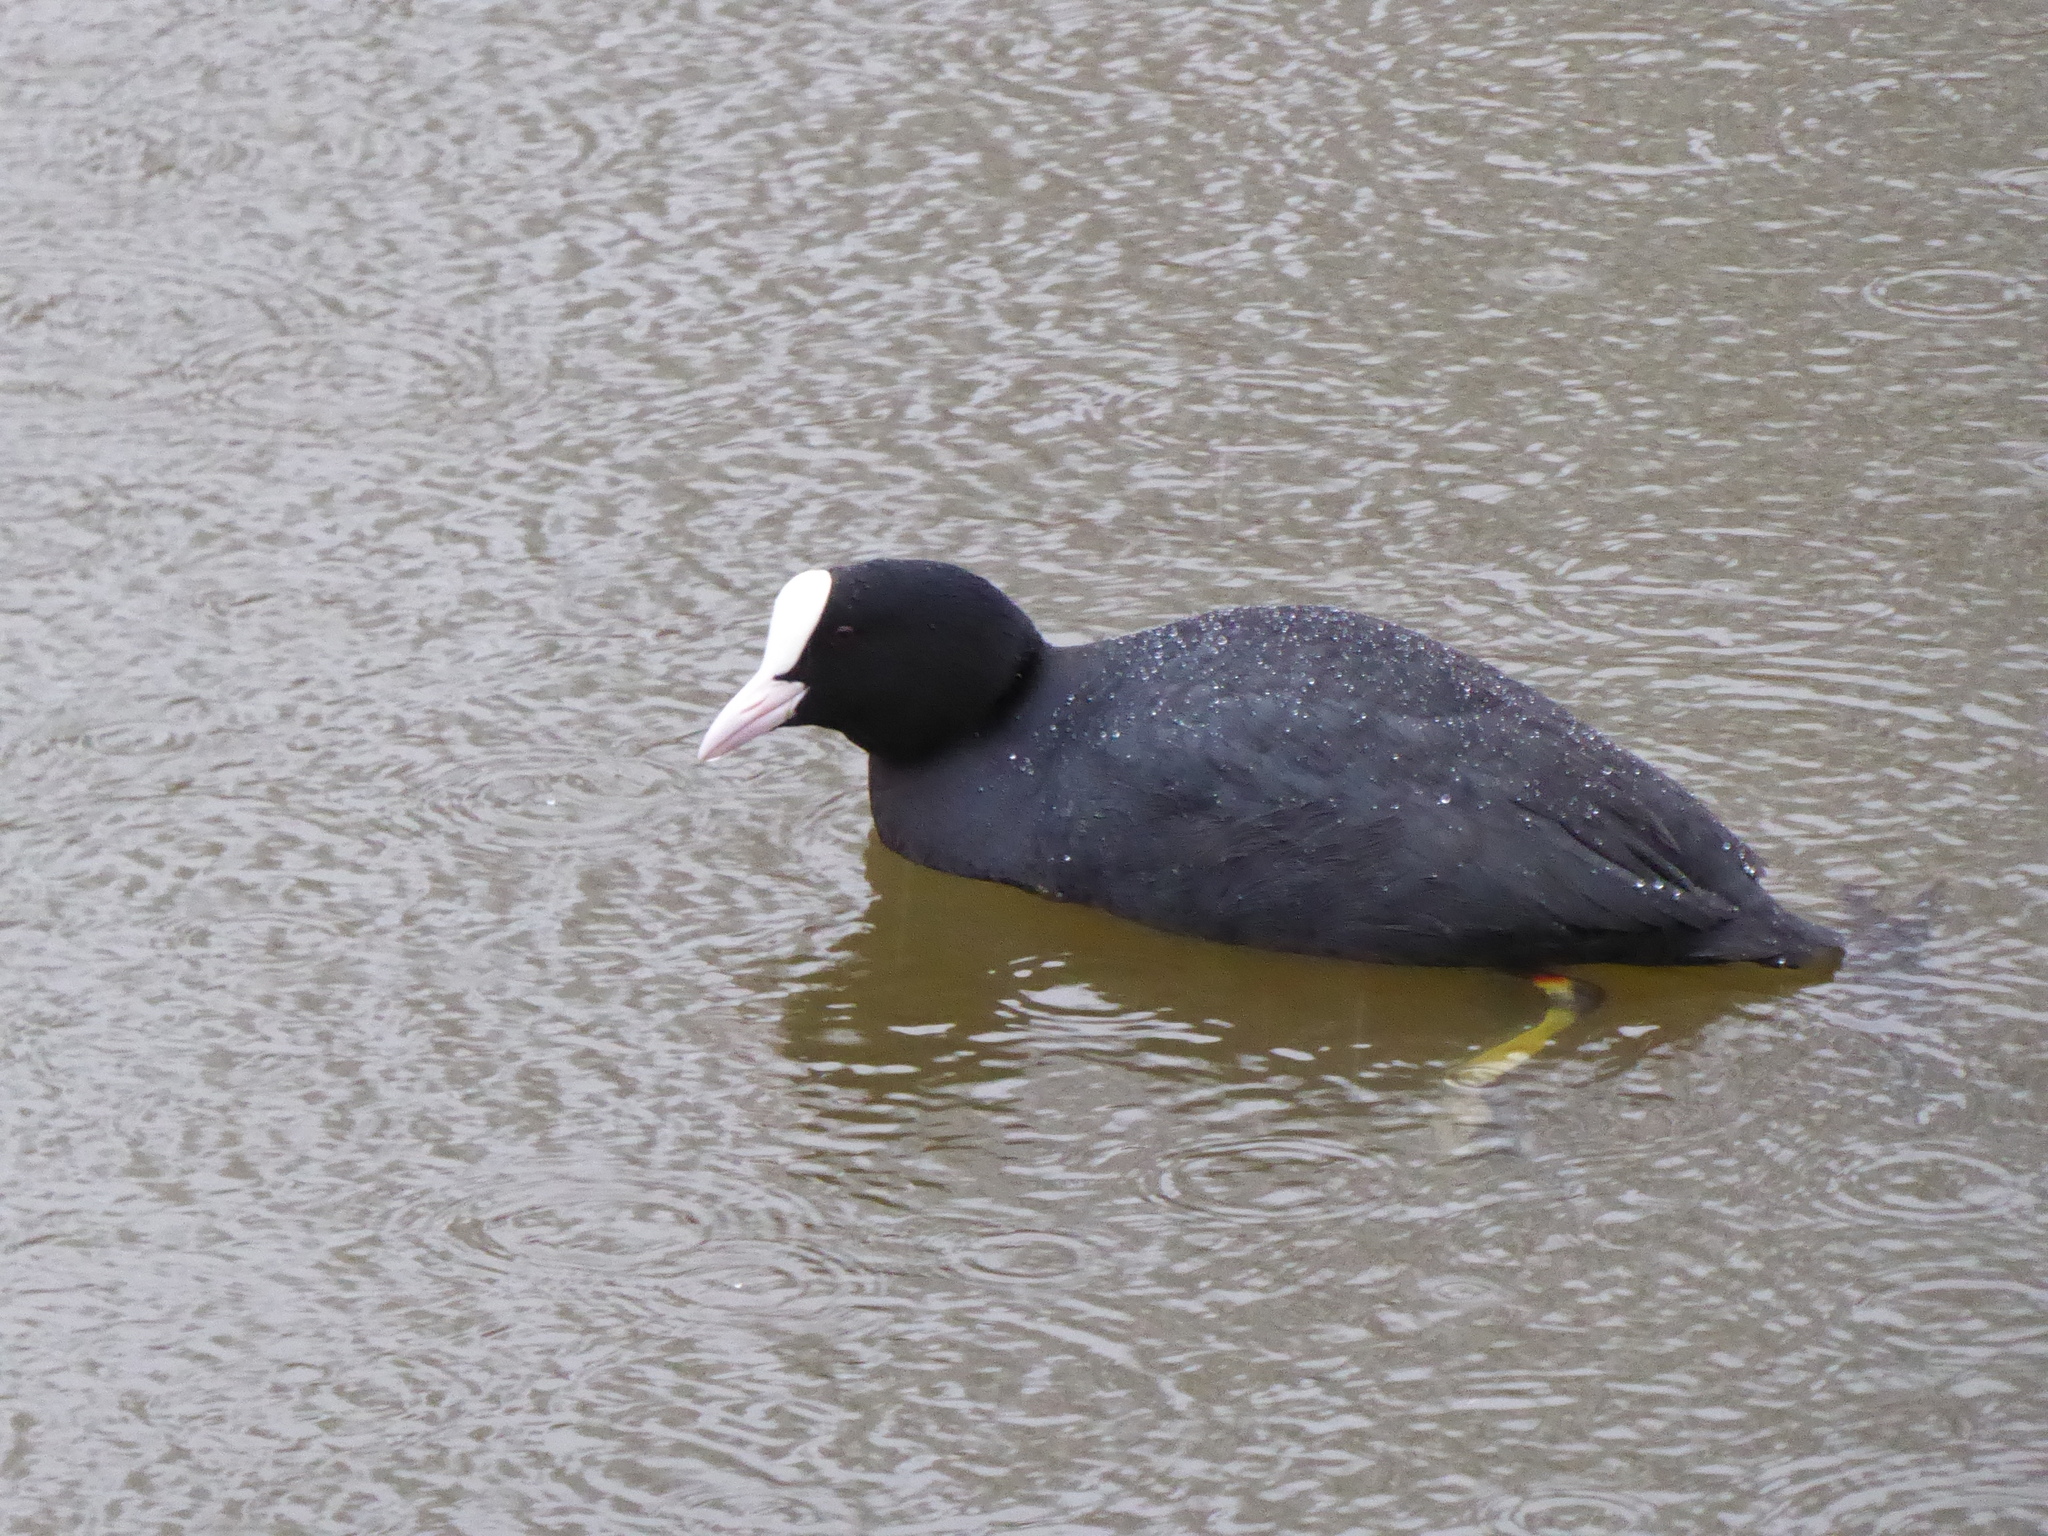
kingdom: Animalia
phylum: Chordata
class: Aves
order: Gruiformes
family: Rallidae
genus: Fulica
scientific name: Fulica atra
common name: Eurasian coot
